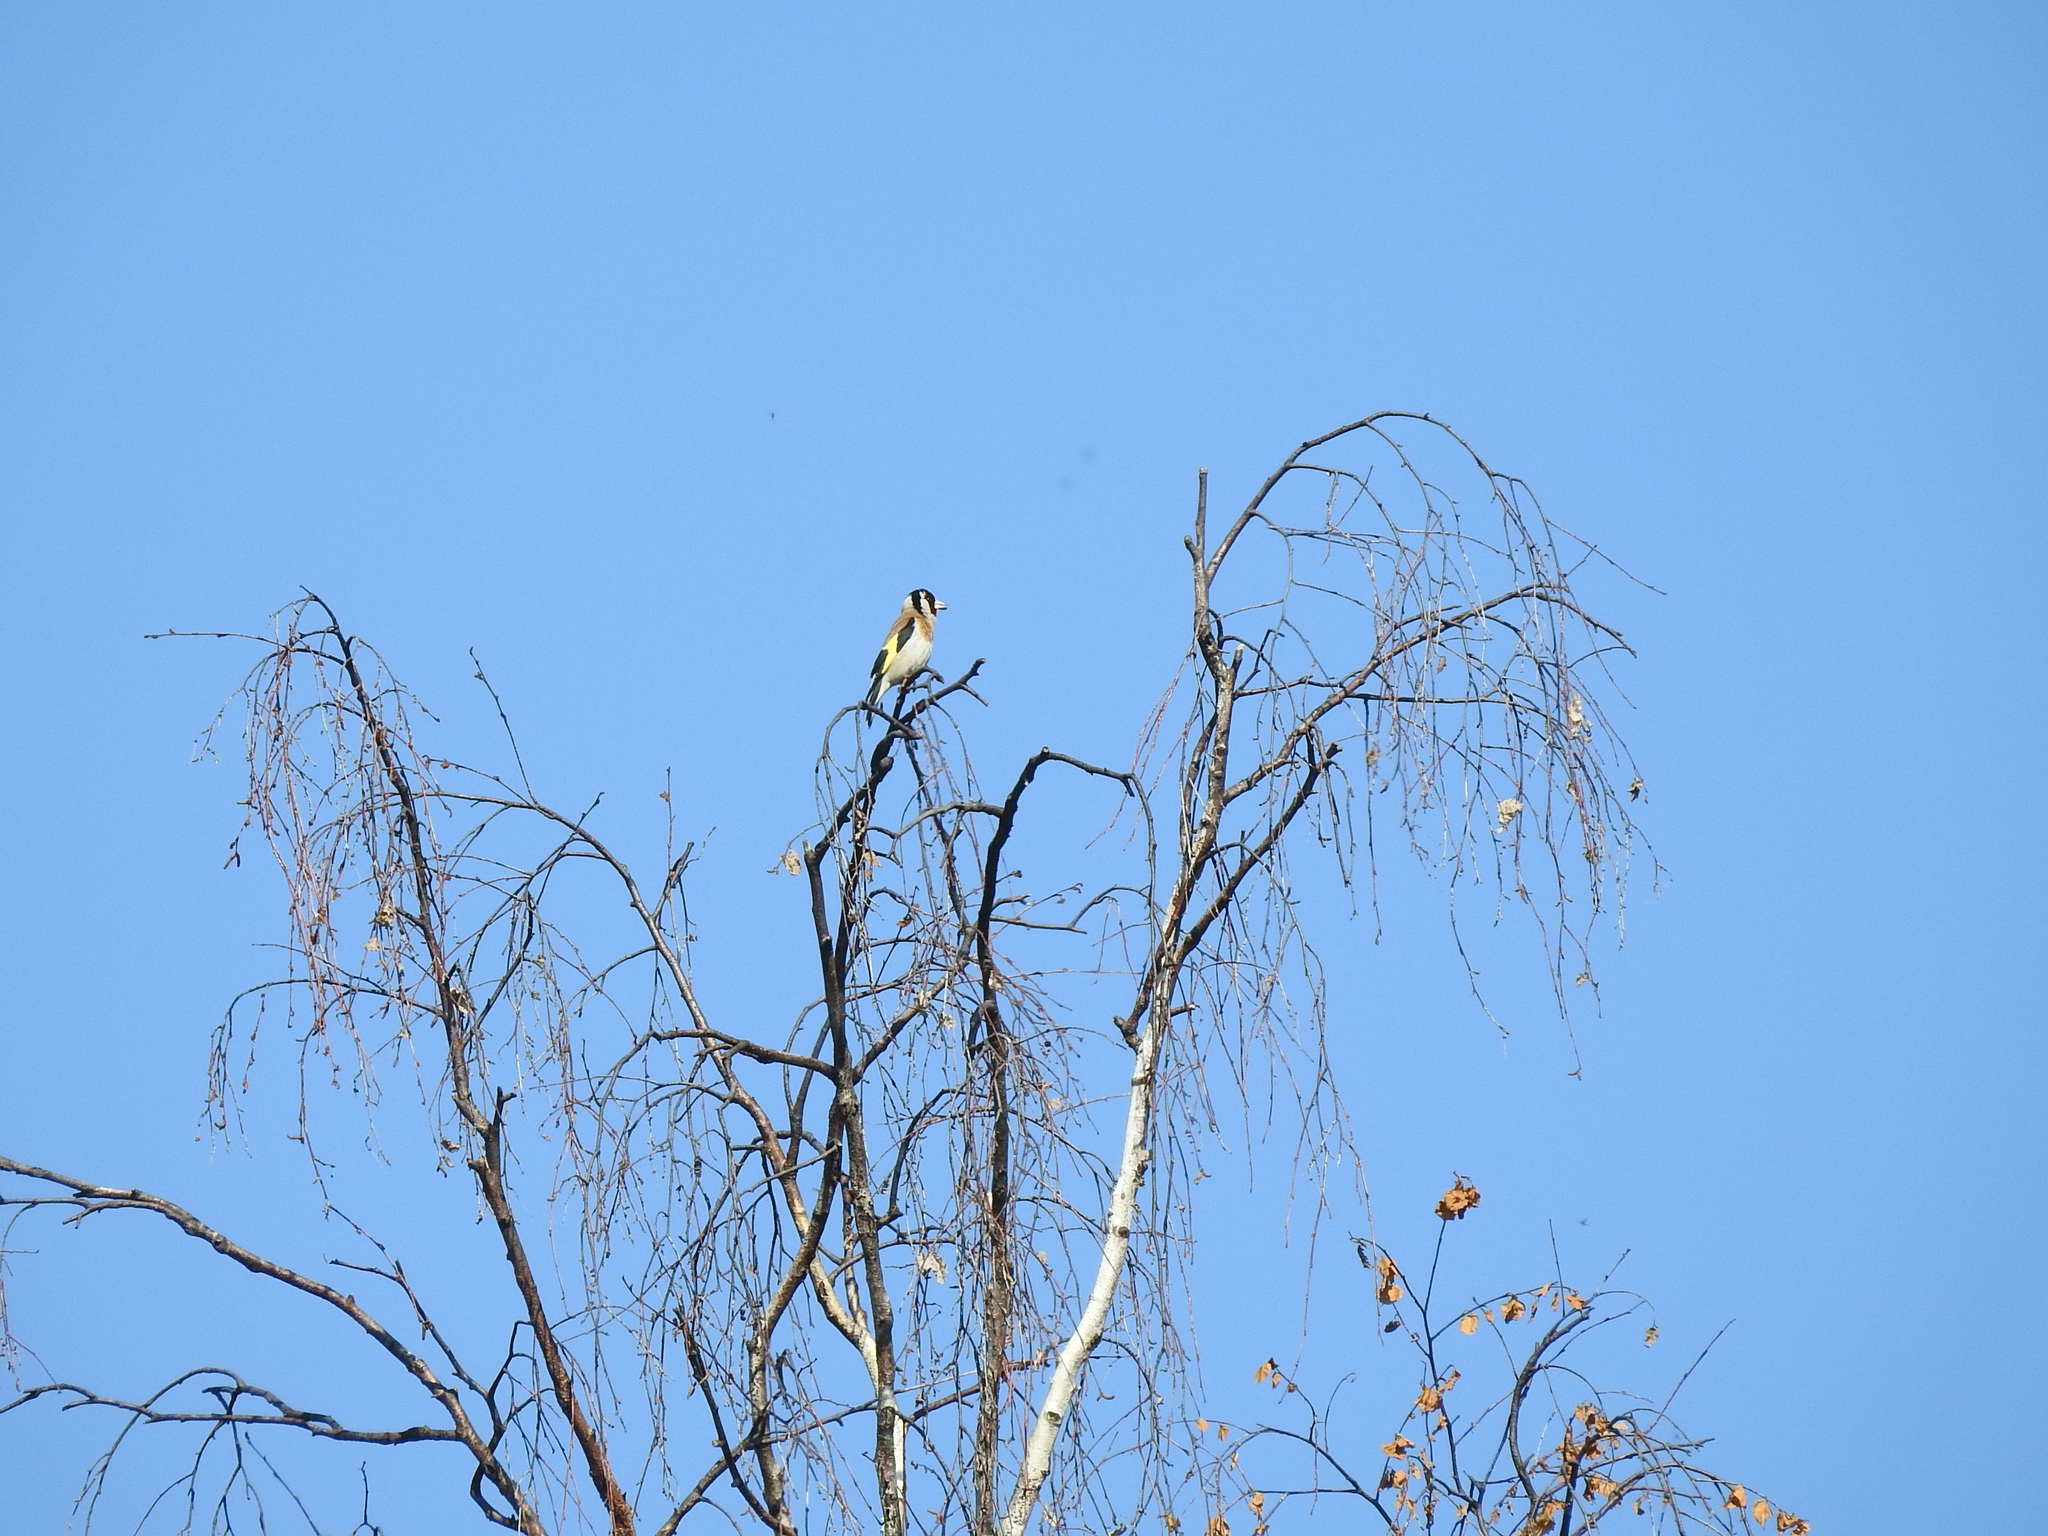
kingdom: Animalia
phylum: Chordata
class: Aves
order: Passeriformes
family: Fringillidae
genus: Carduelis
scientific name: Carduelis carduelis
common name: European goldfinch
